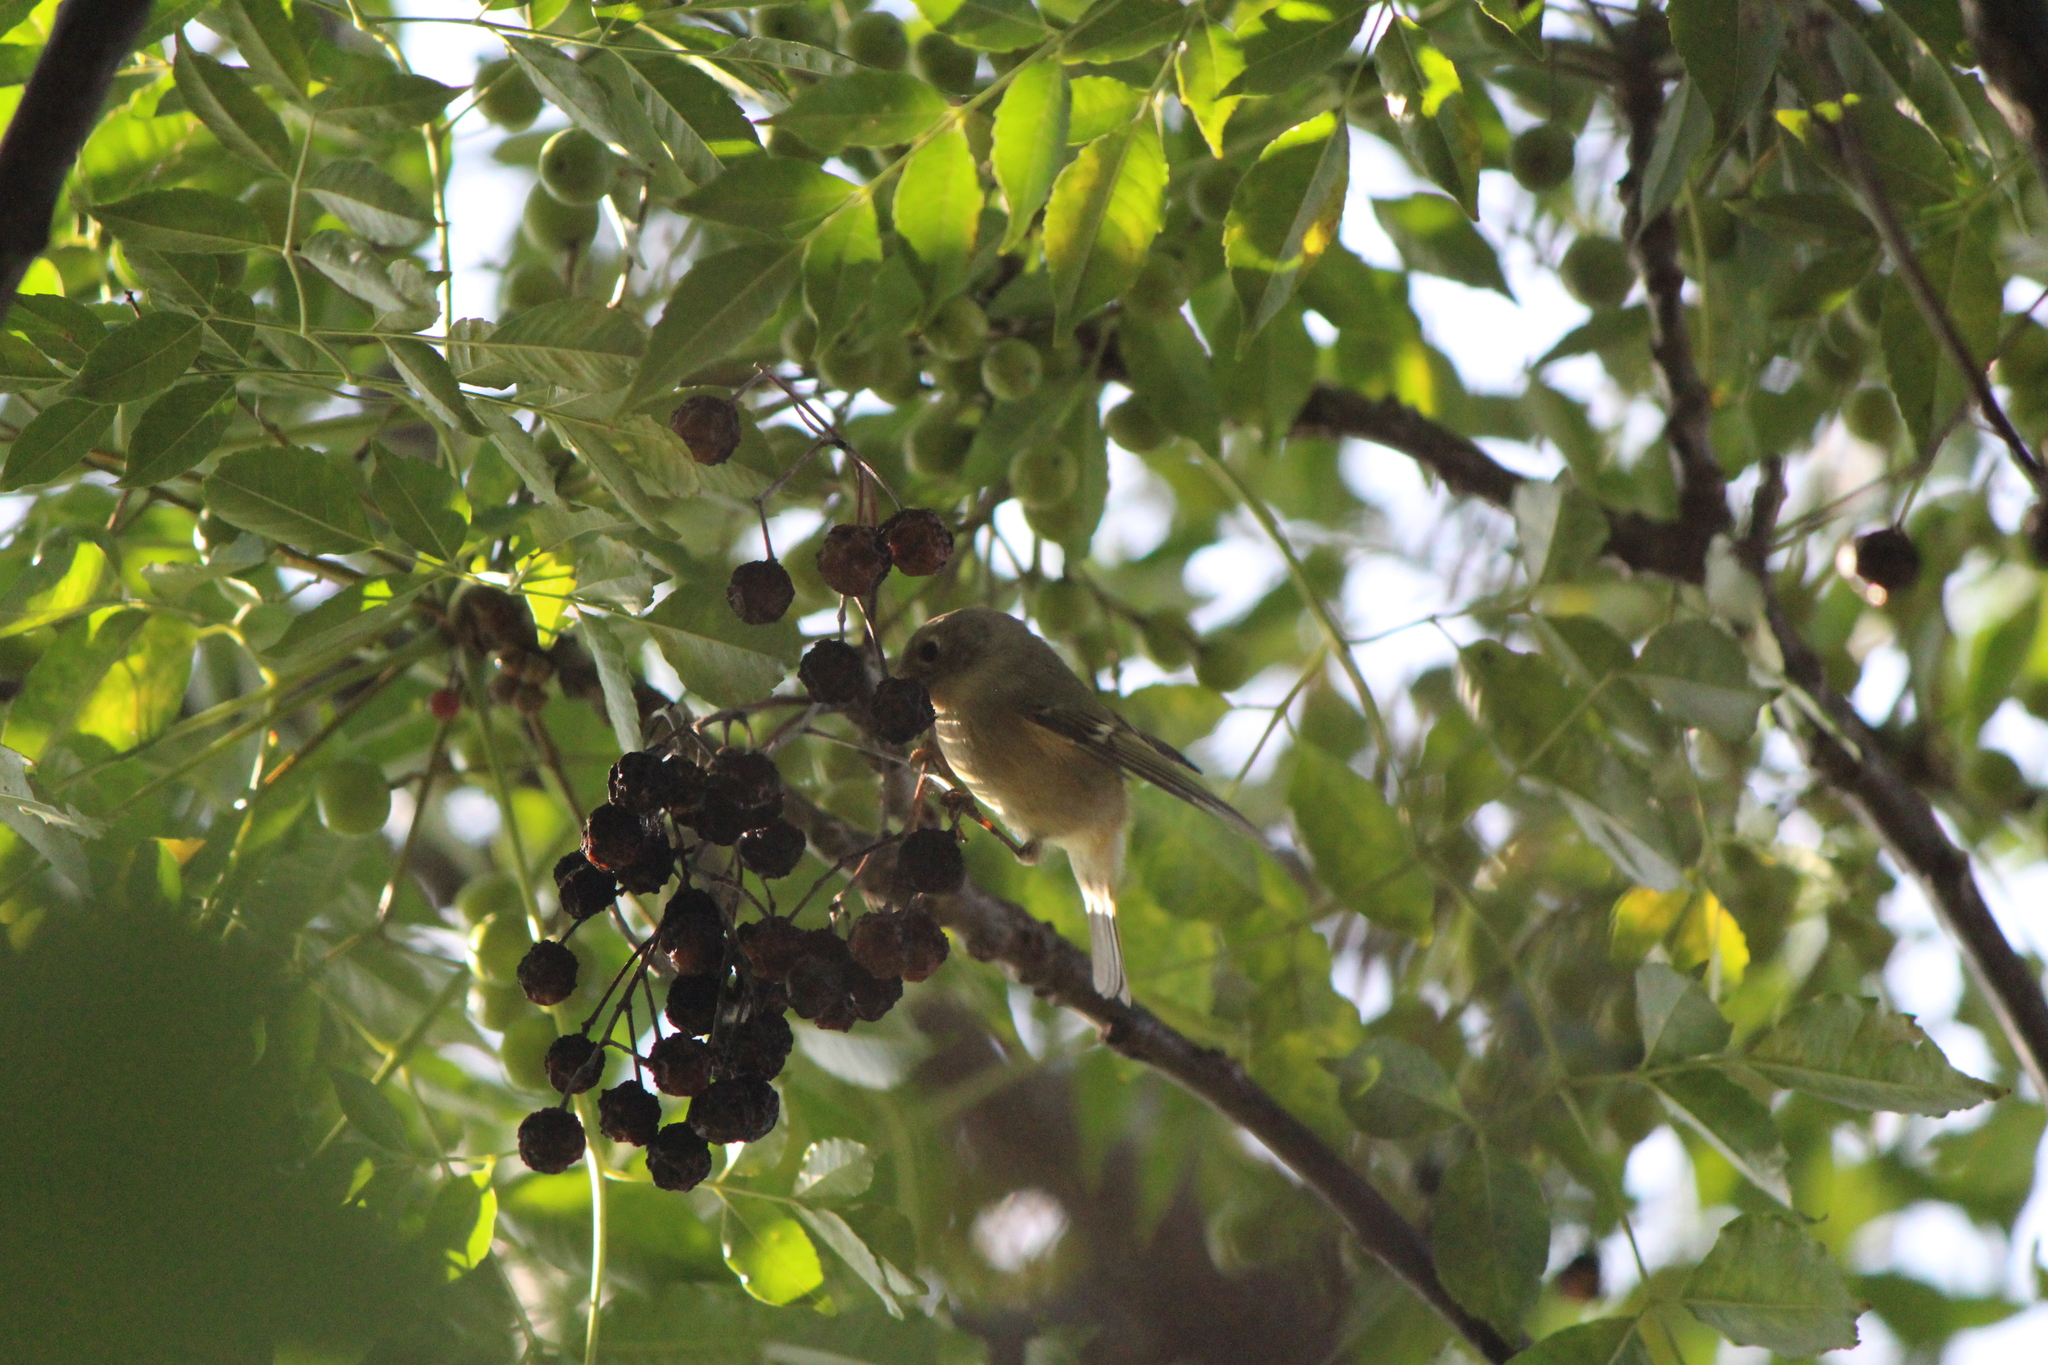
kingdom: Animalia
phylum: Chordata
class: Aves
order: Passeriformes
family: Regulidae
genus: Regulus
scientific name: Regulus calendula
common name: Ruby-crowned kinglet
